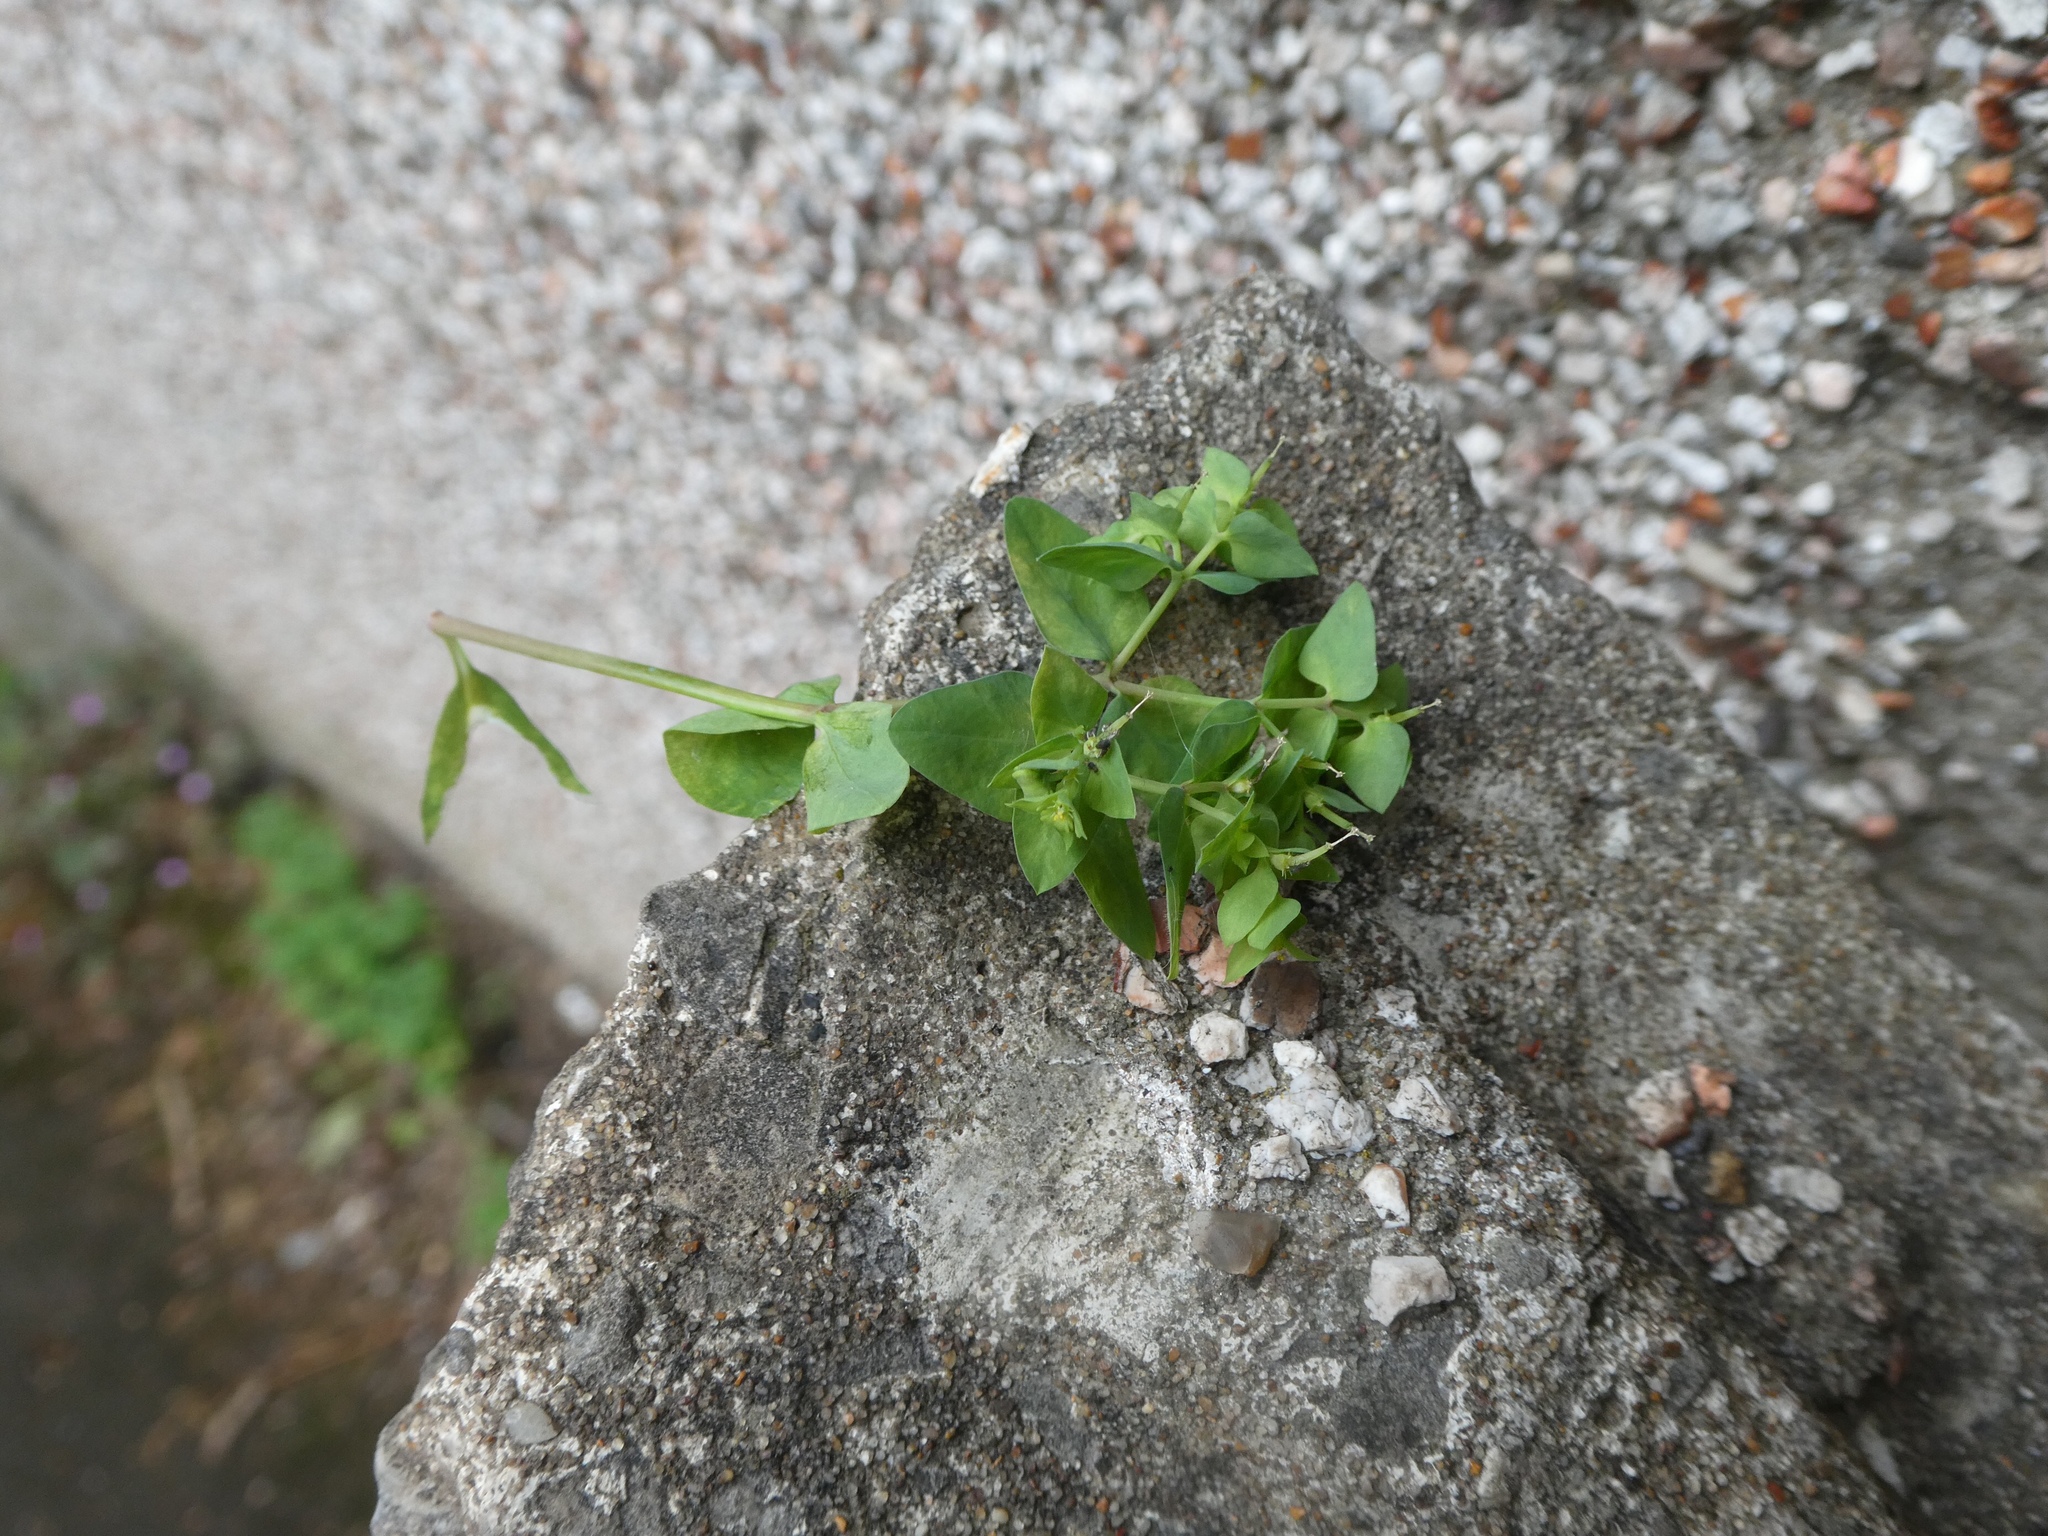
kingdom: Plantae
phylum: Tracheophyta
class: Magnoliopsida
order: Malpighiales
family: Euphorbiaceae
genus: Euphorbia
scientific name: Euphorbia peplus
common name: Petty spurge
